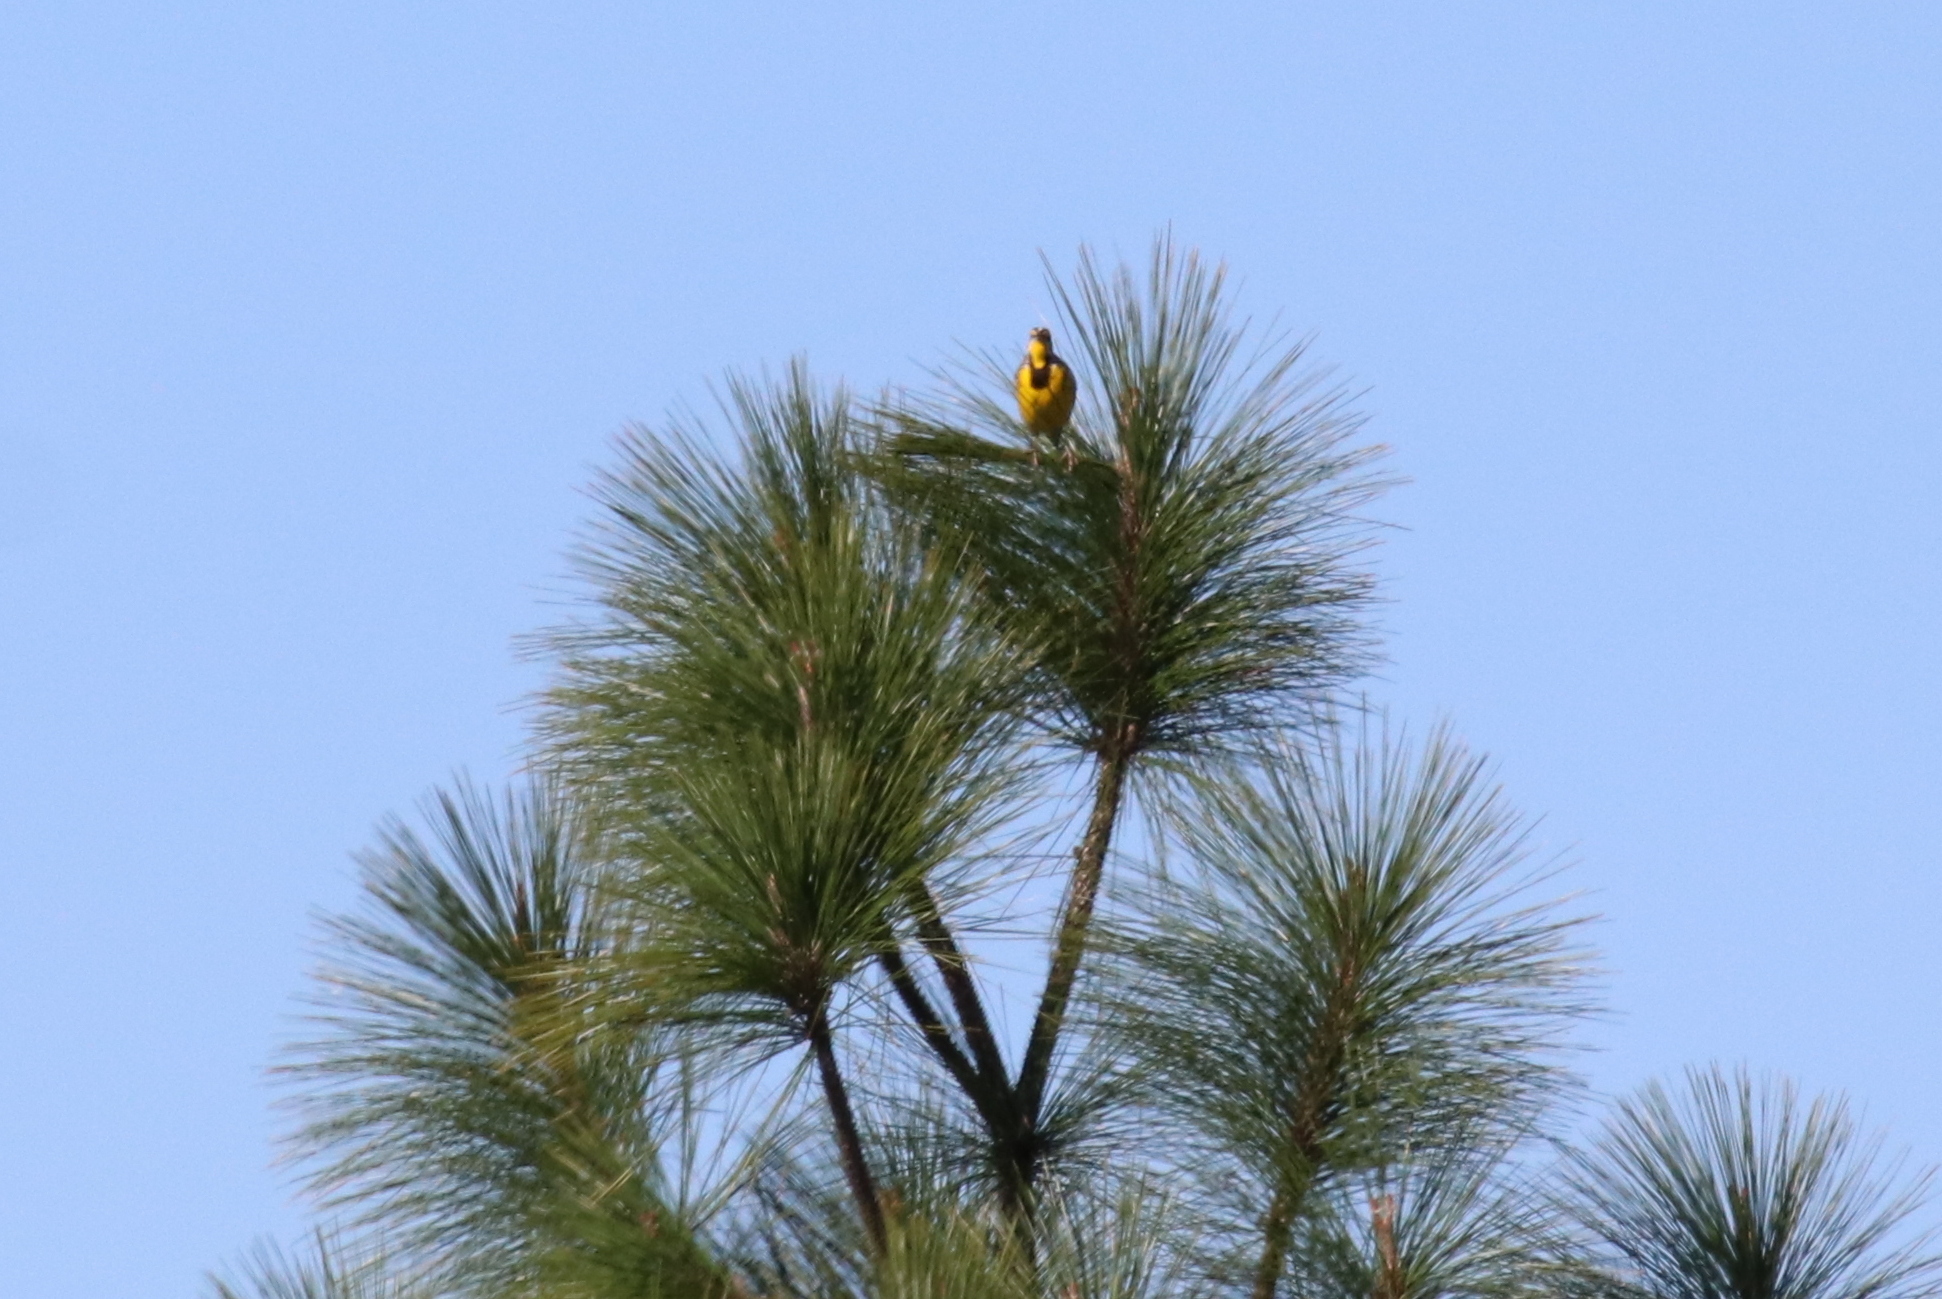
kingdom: Animalia
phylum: Chordata
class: Aves
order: Passeriformes
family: Icteridae
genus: Sturnella
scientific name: Sturnella magna
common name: Eastern meadowlark
